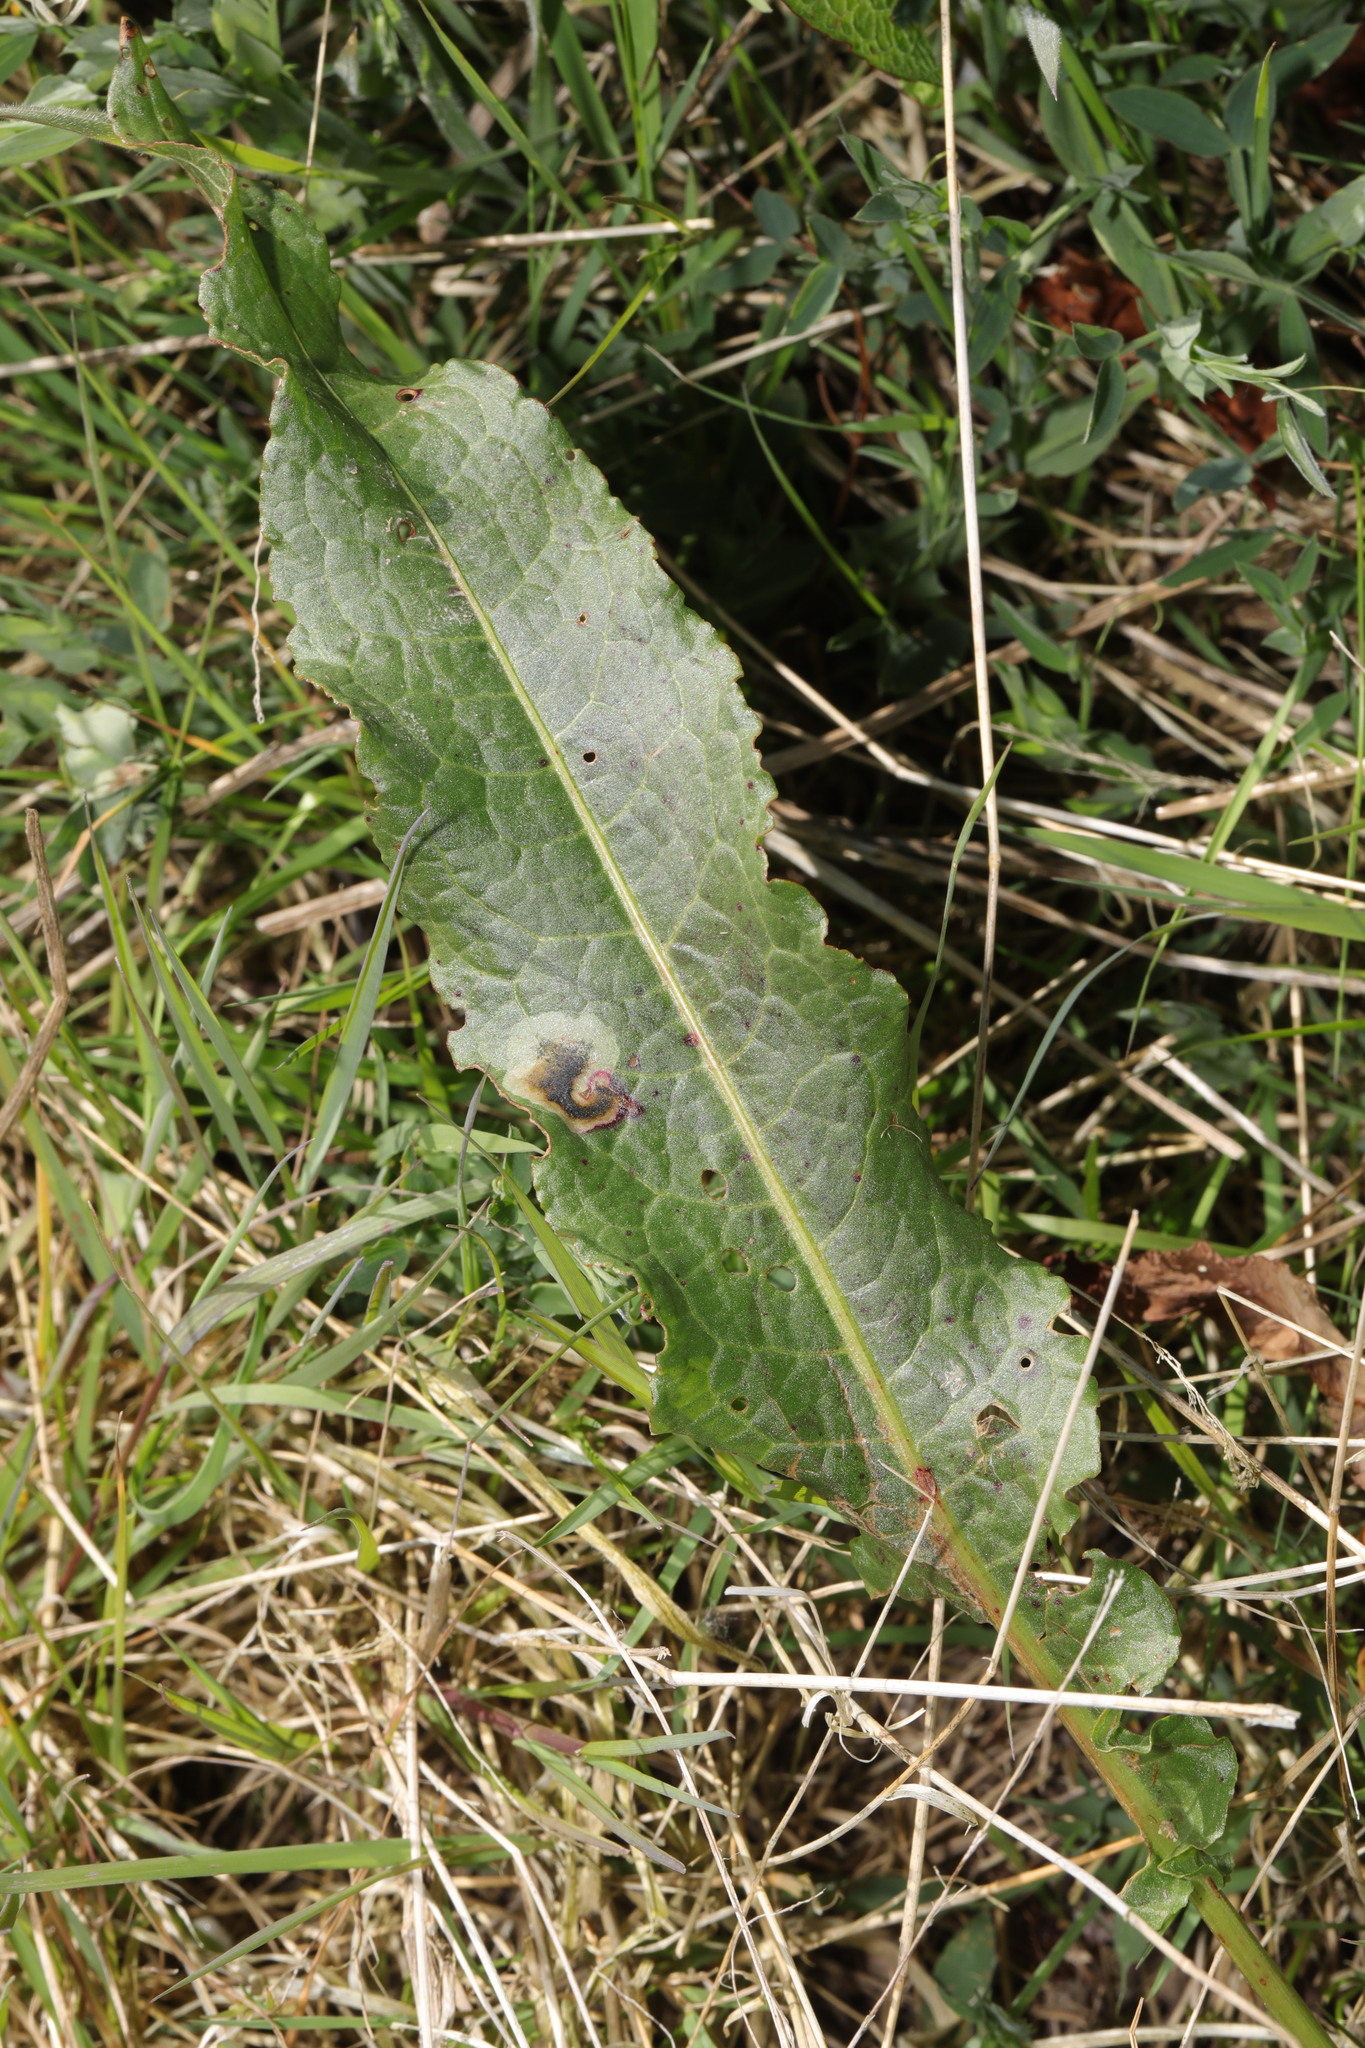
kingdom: Plantae
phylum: Tracheophyta
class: Magnoliopsida
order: Caryophyllales
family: Polygonaceae
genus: Rumex
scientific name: Rumex crispus
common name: Curled dock
